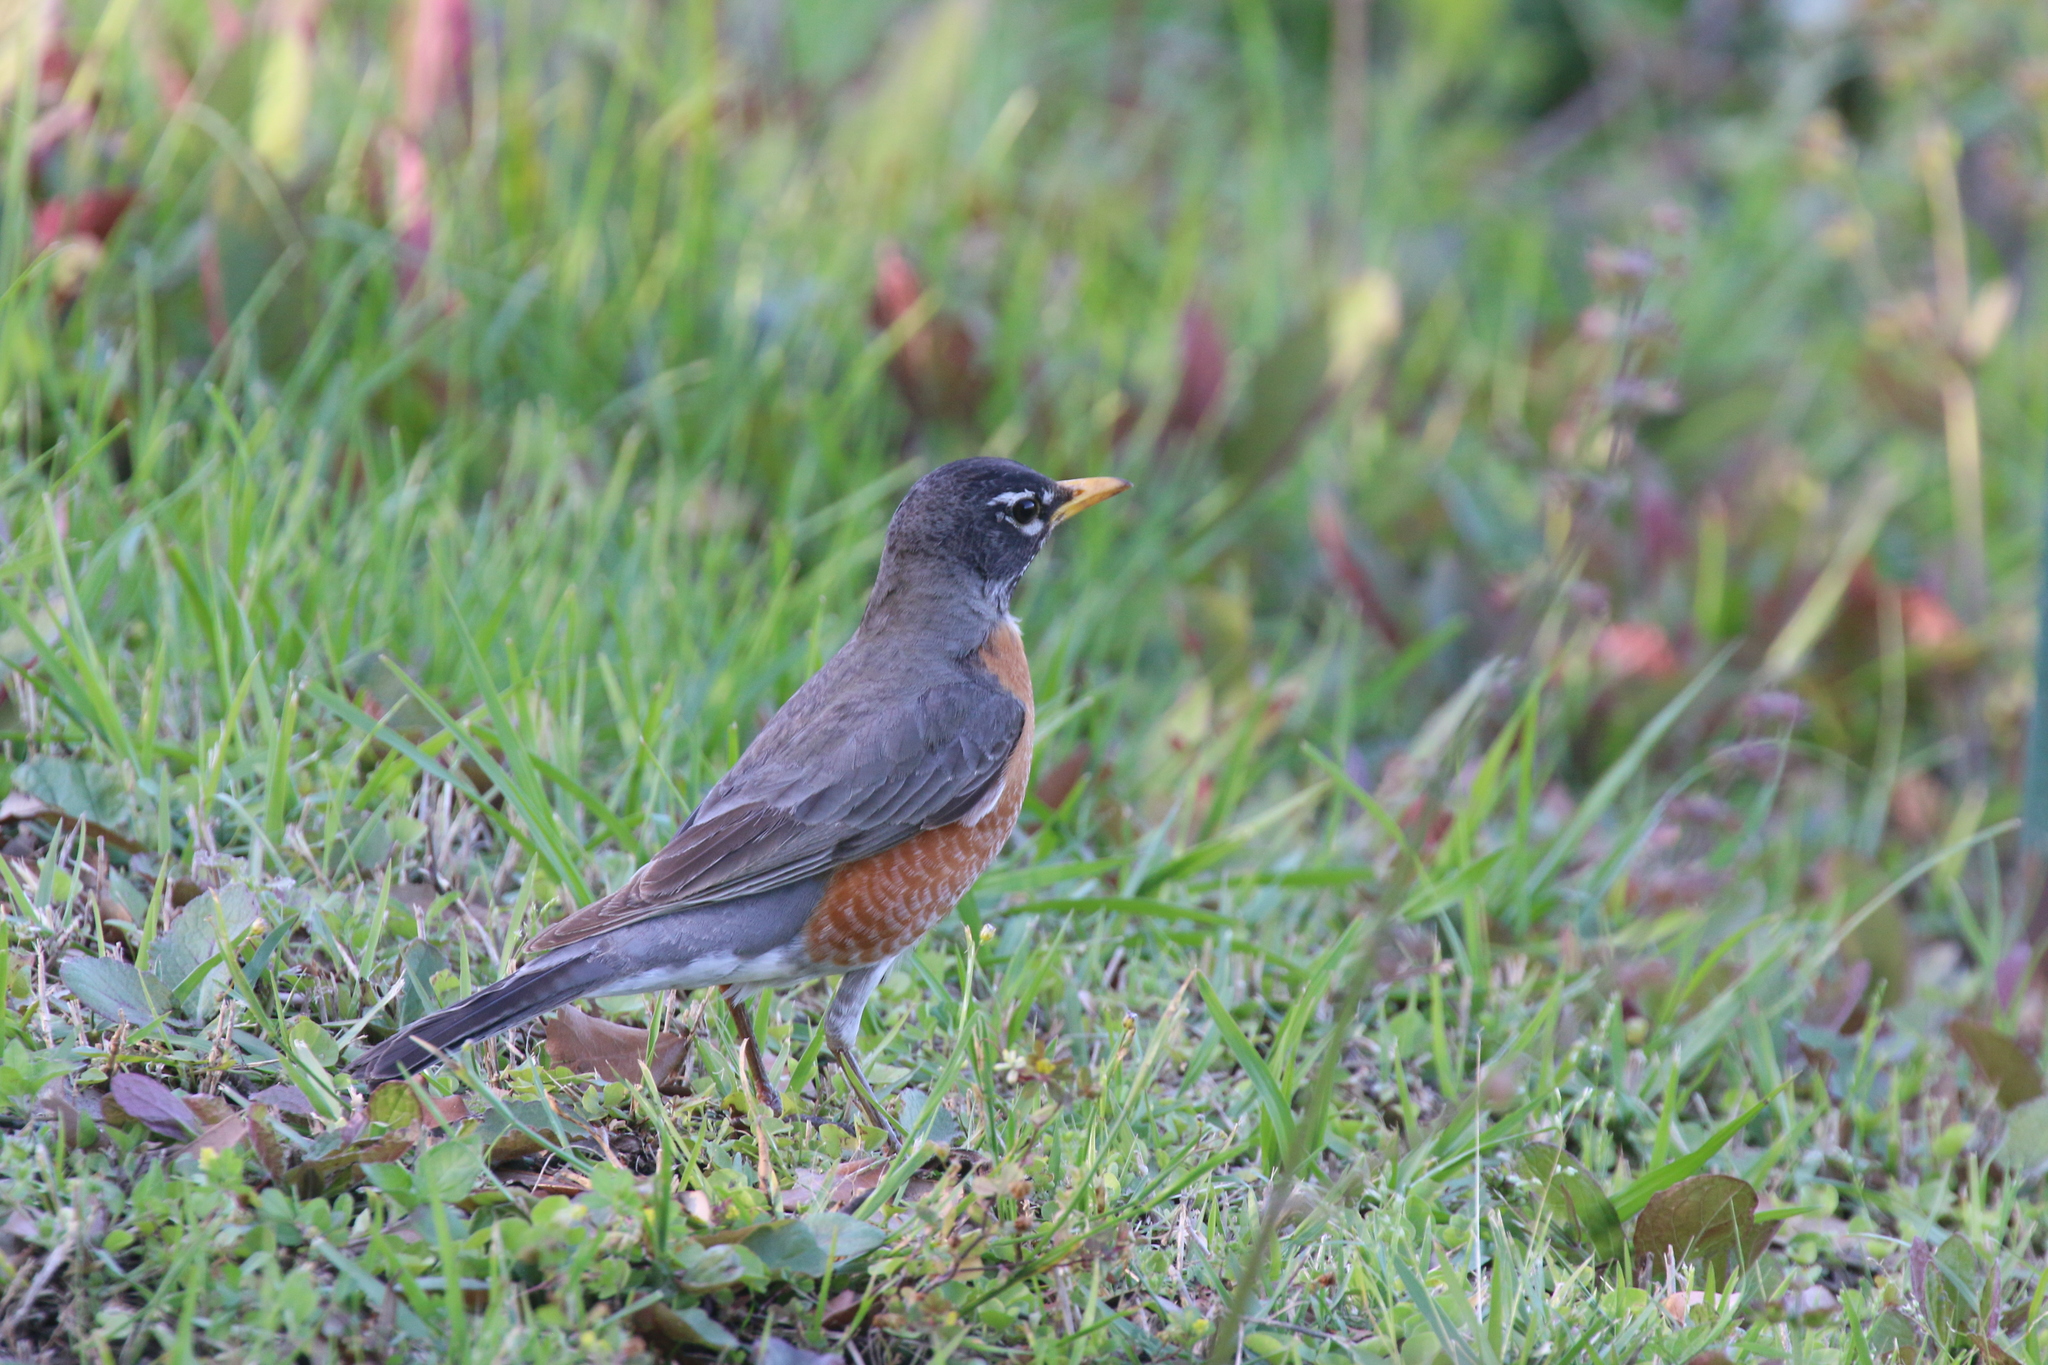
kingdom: Animalia
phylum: Chordata
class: Aves
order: Passeriformes
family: Turdidae
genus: Turdus
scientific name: Turdus migratorius
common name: American robin
